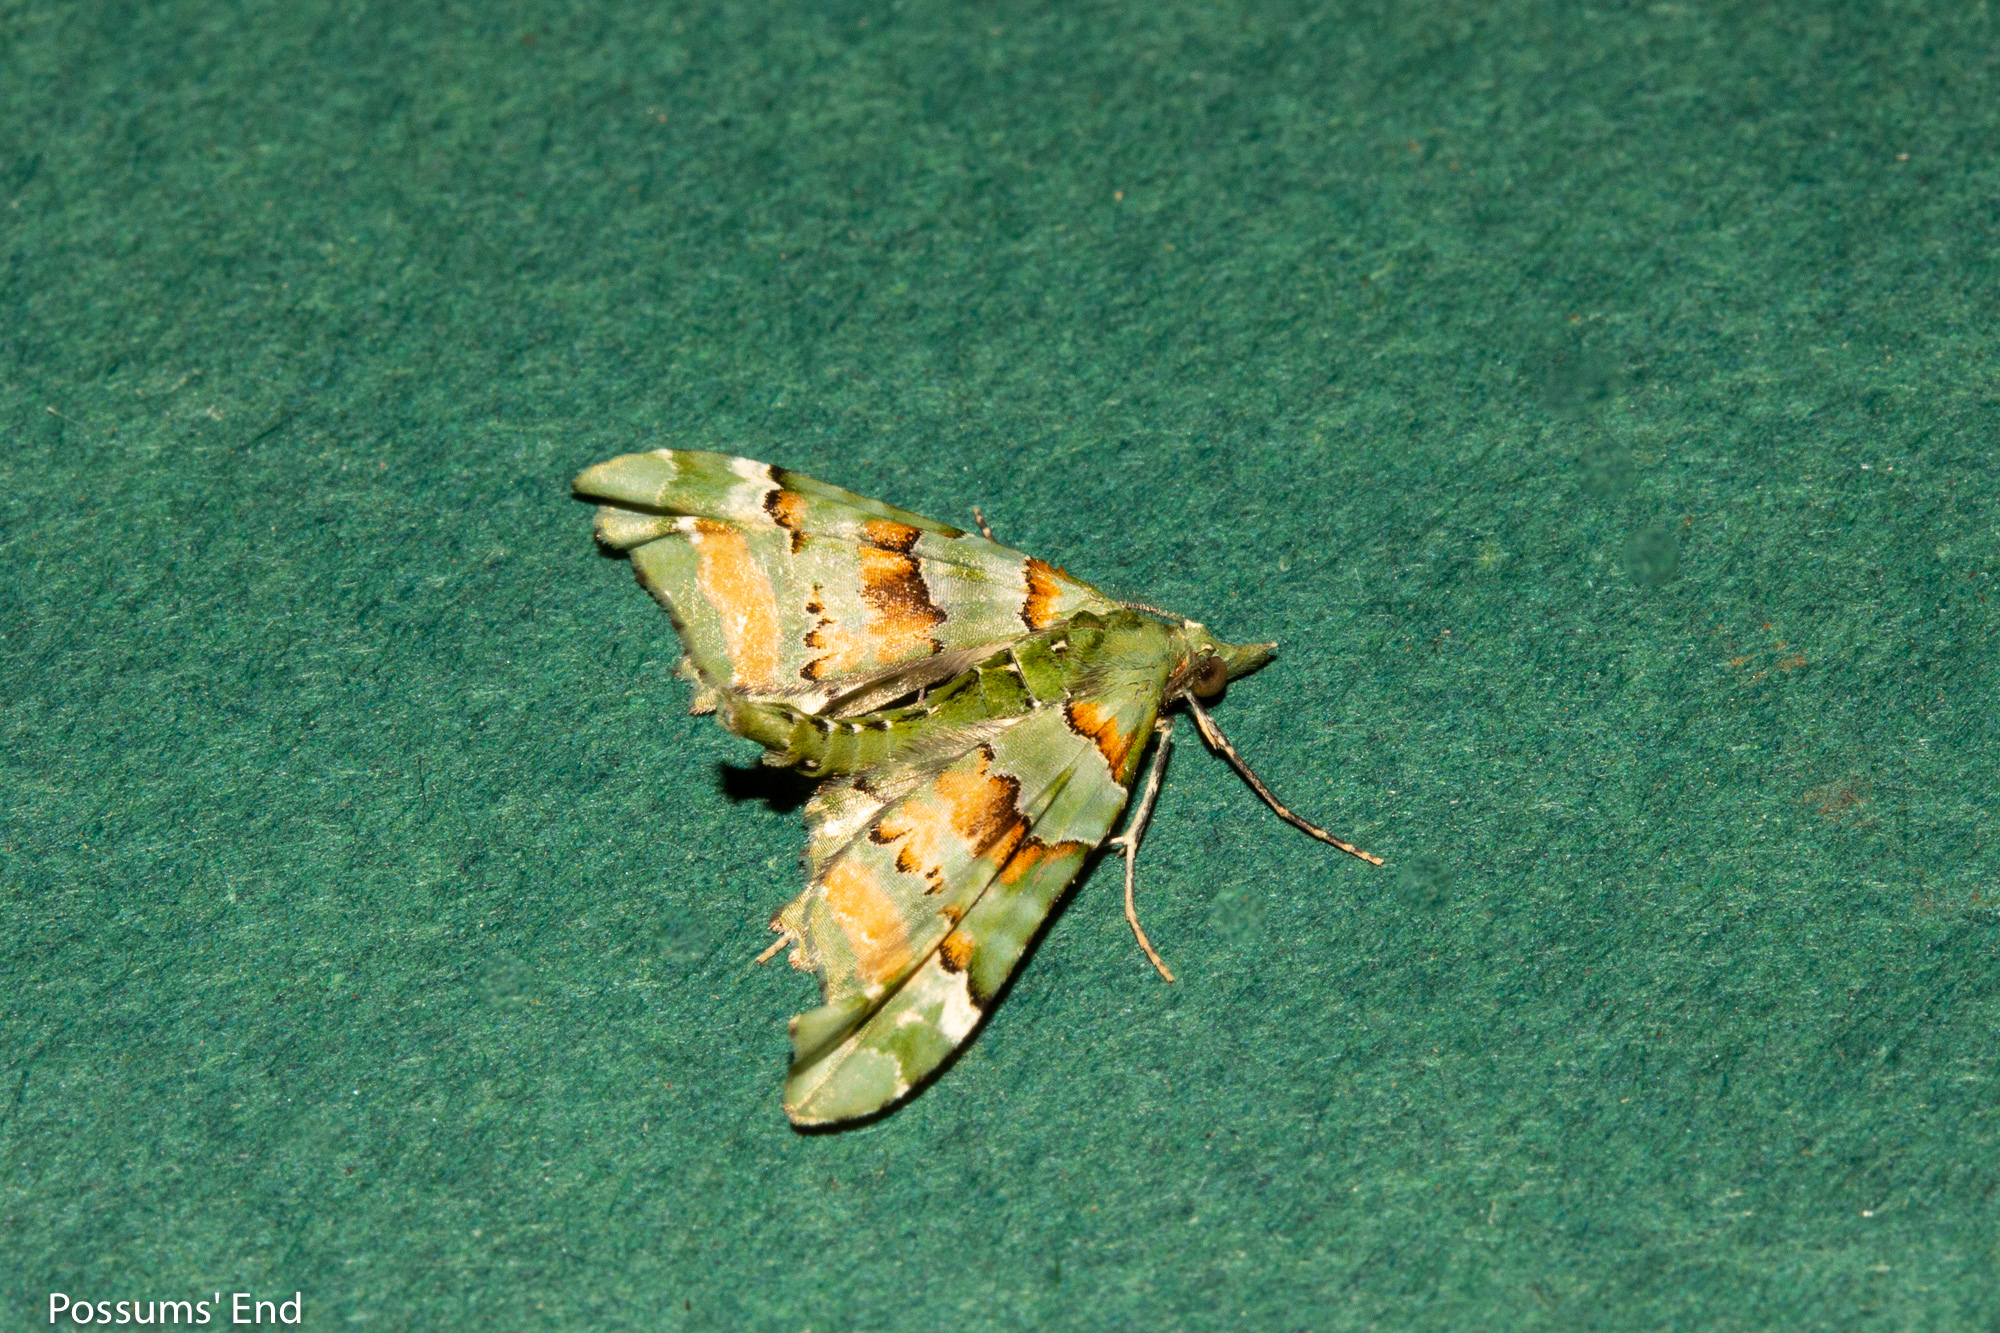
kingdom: Animalia
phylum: Arthropoda
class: Insecta
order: Lepidoptera
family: Geometridae
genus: Elvia
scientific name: Elvia glaucata
